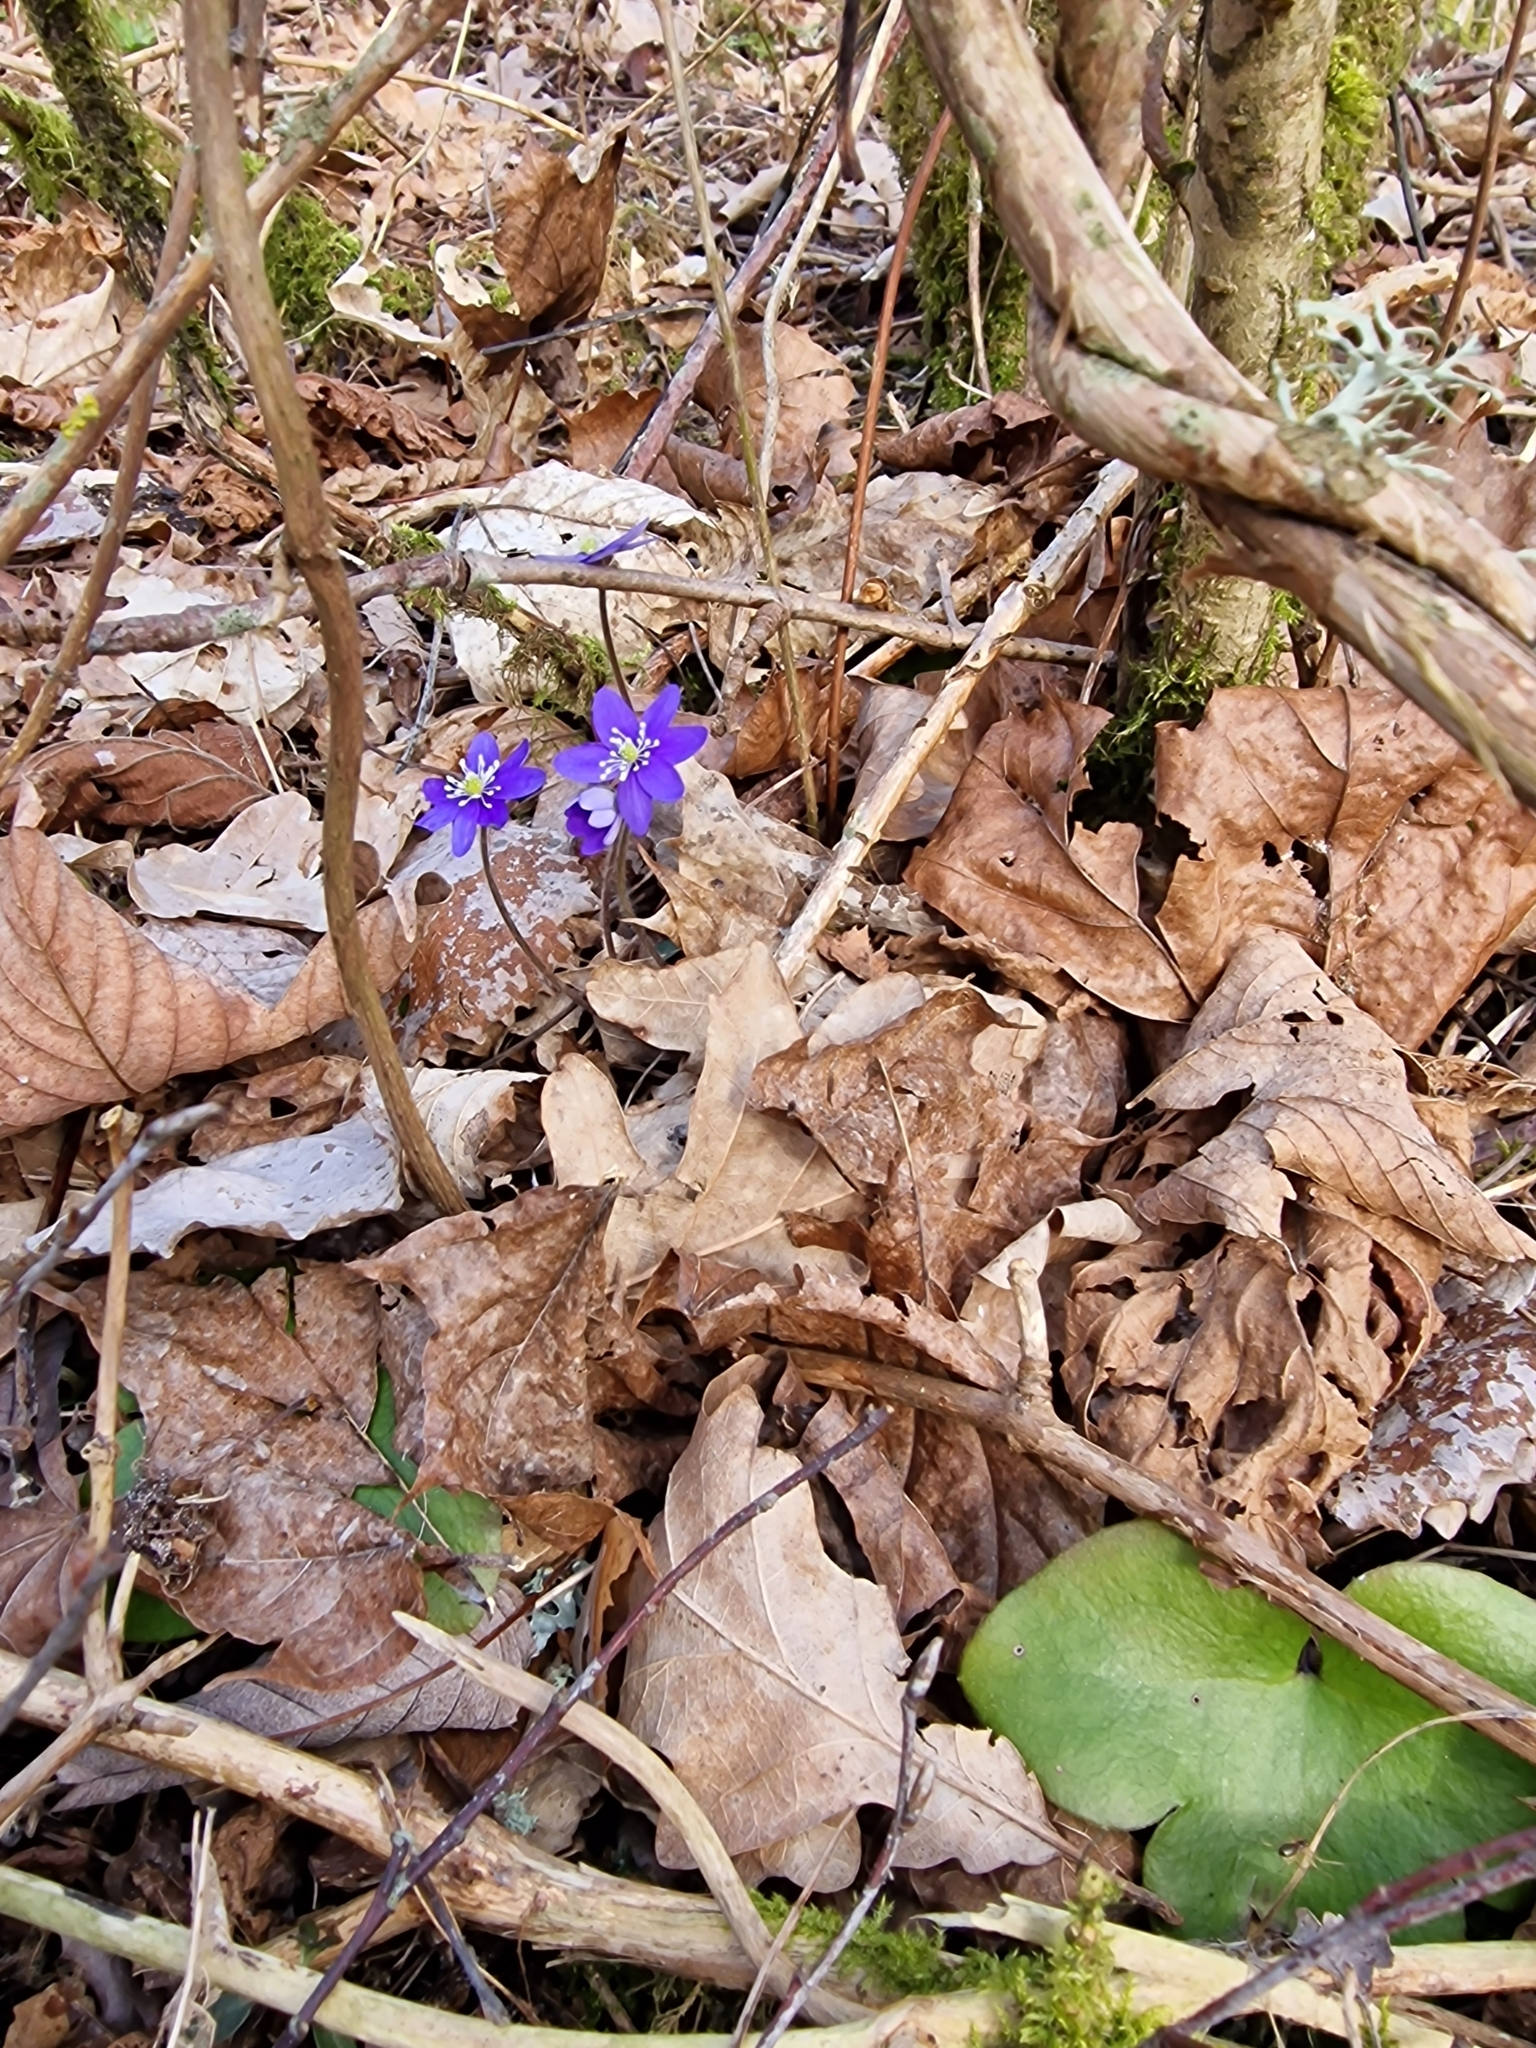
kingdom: Plantae
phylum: Tracheophyta
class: Magnoliopsida
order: Ranunculales
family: Ranunculaceae
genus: Hepatica
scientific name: Hepatica nobilis
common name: Liverleaf
